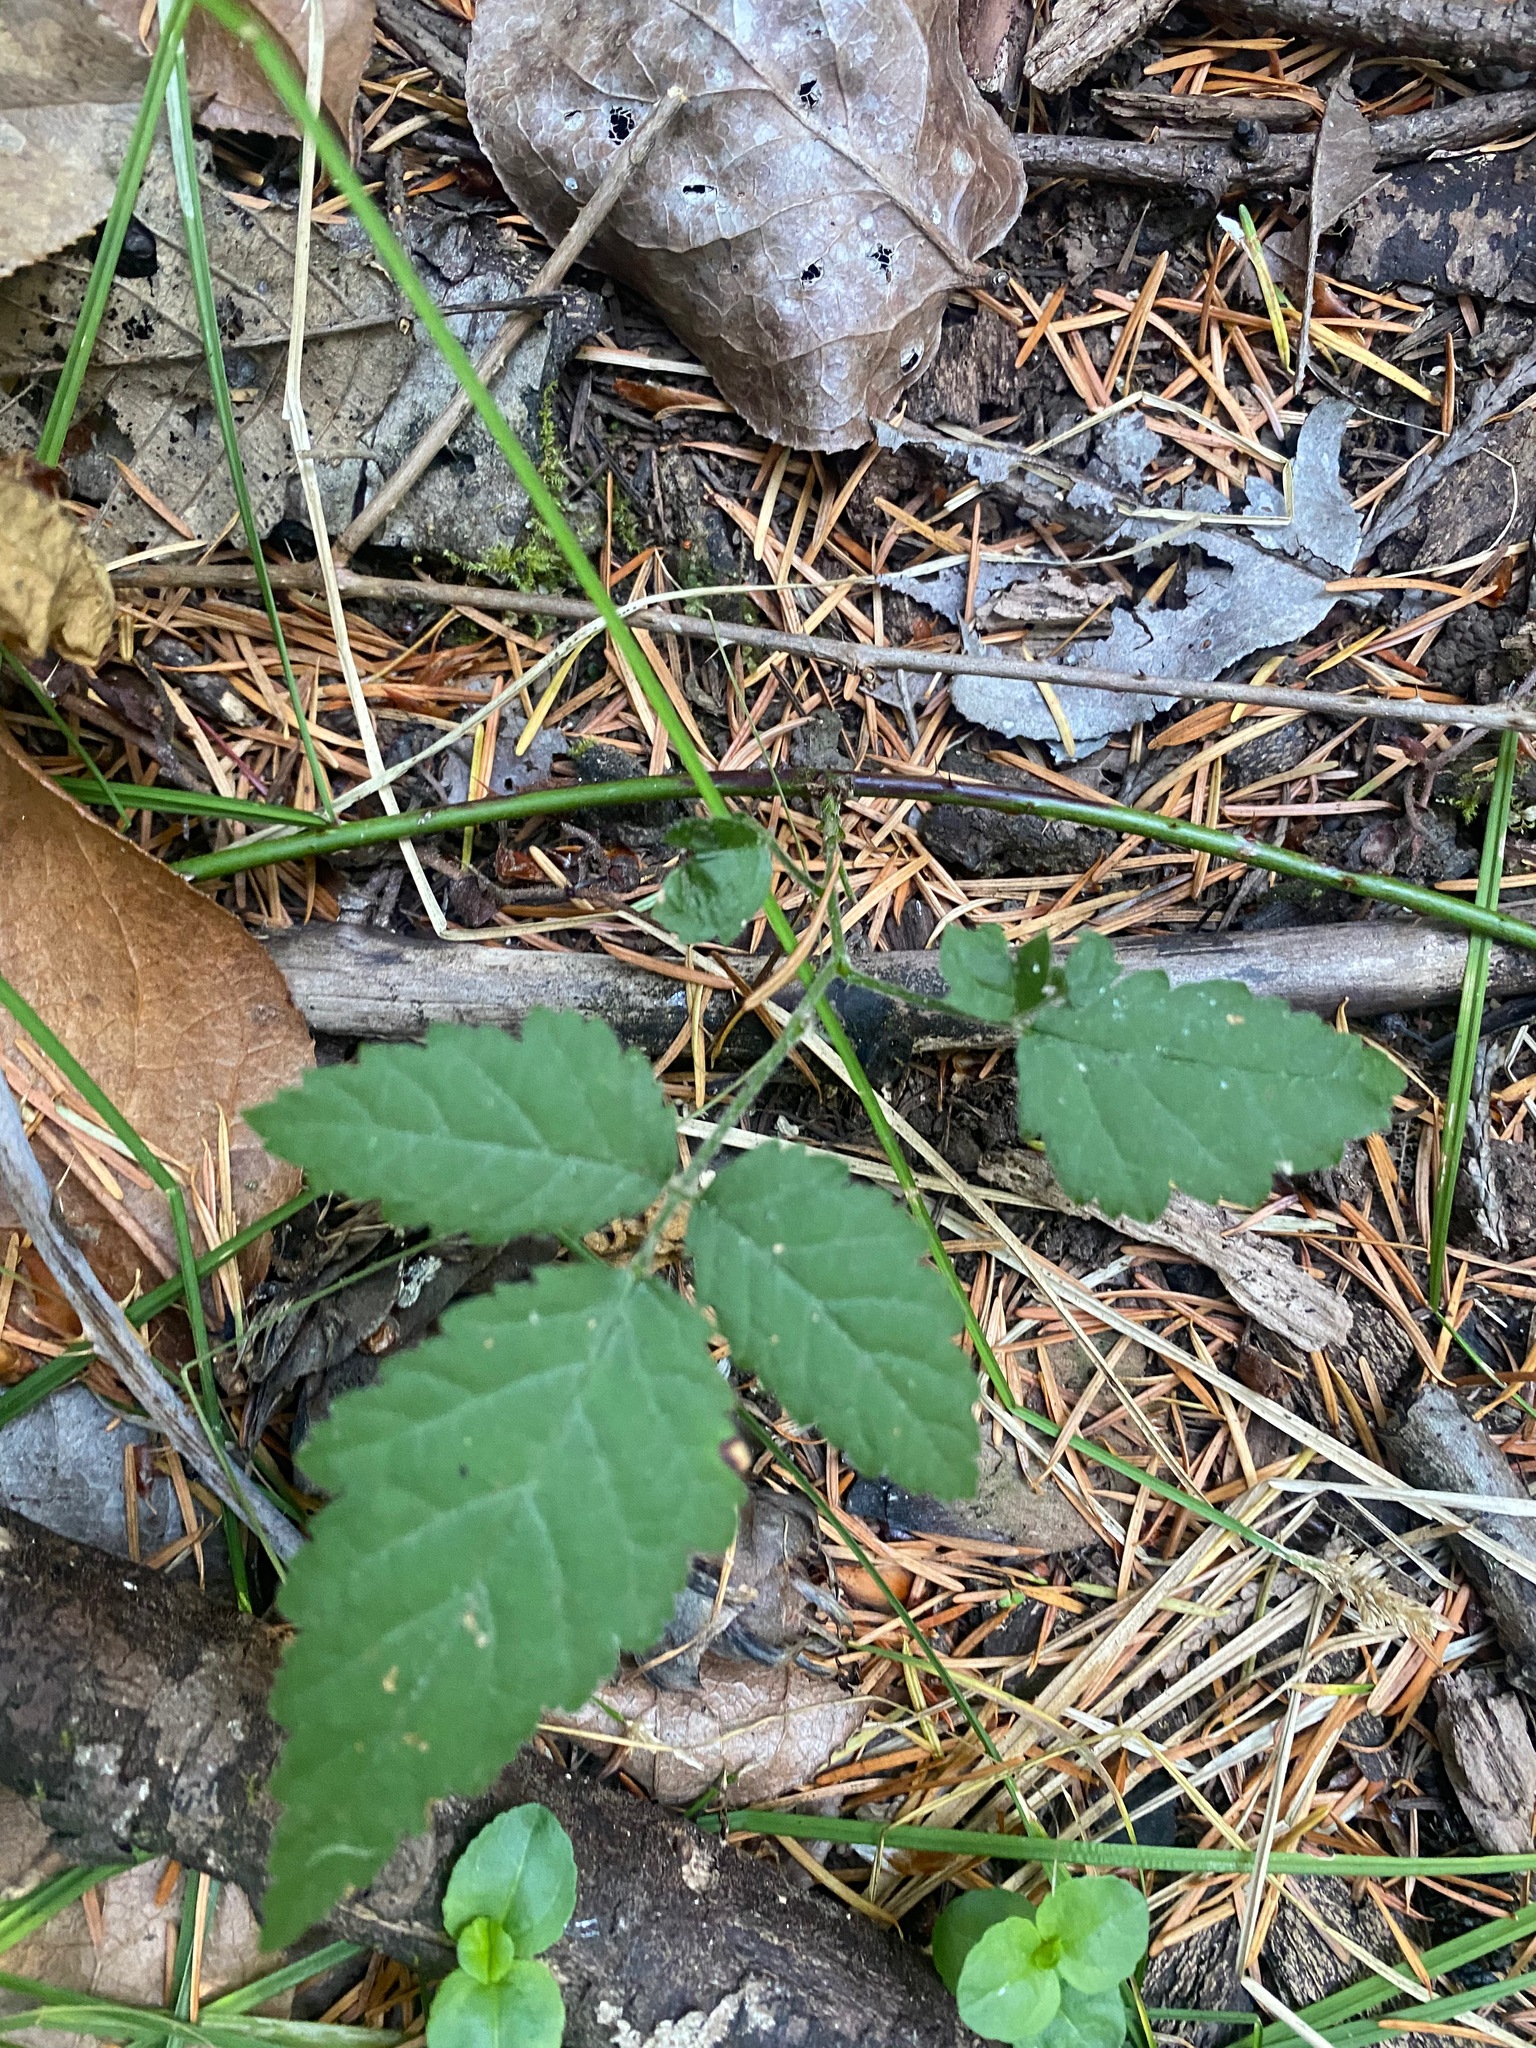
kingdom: Plantae
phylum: Tracheophyta
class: Magnoliopsida
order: Rosales
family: Rosaceae
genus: Rubus
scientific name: Rubus ursinus
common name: Pacific blackberry
